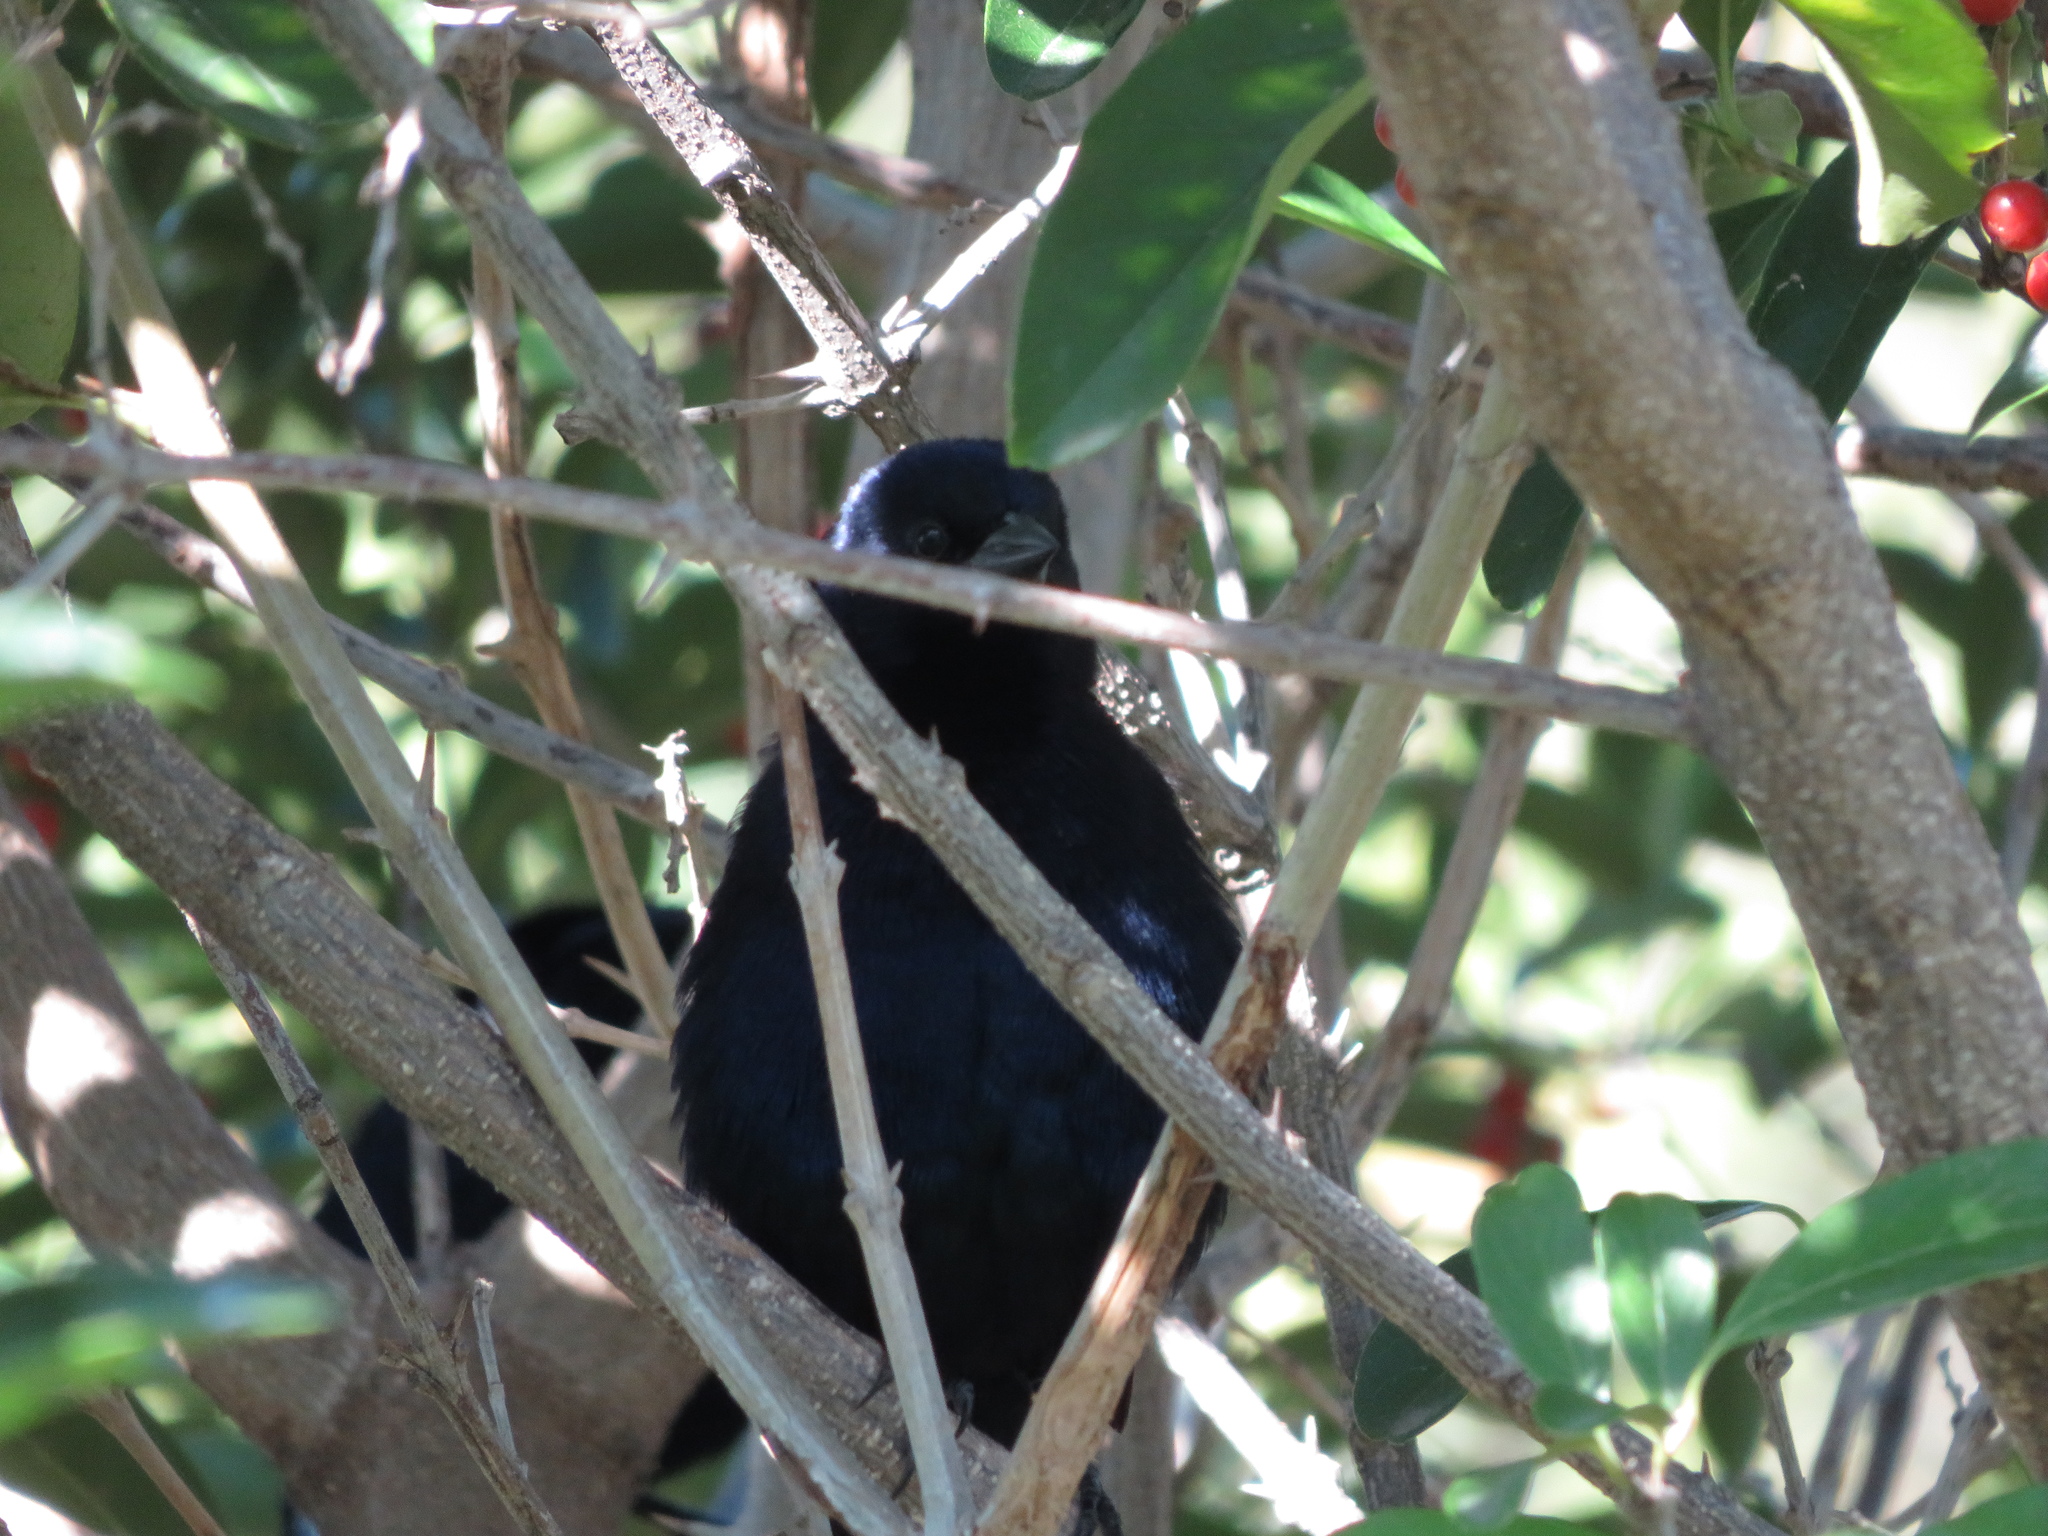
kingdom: Animalia
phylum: Chordata
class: Aves
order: Passeriformes
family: Icteridae
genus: Molothrus
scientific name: Molothrus bonariensis
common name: Shiny cowbird
